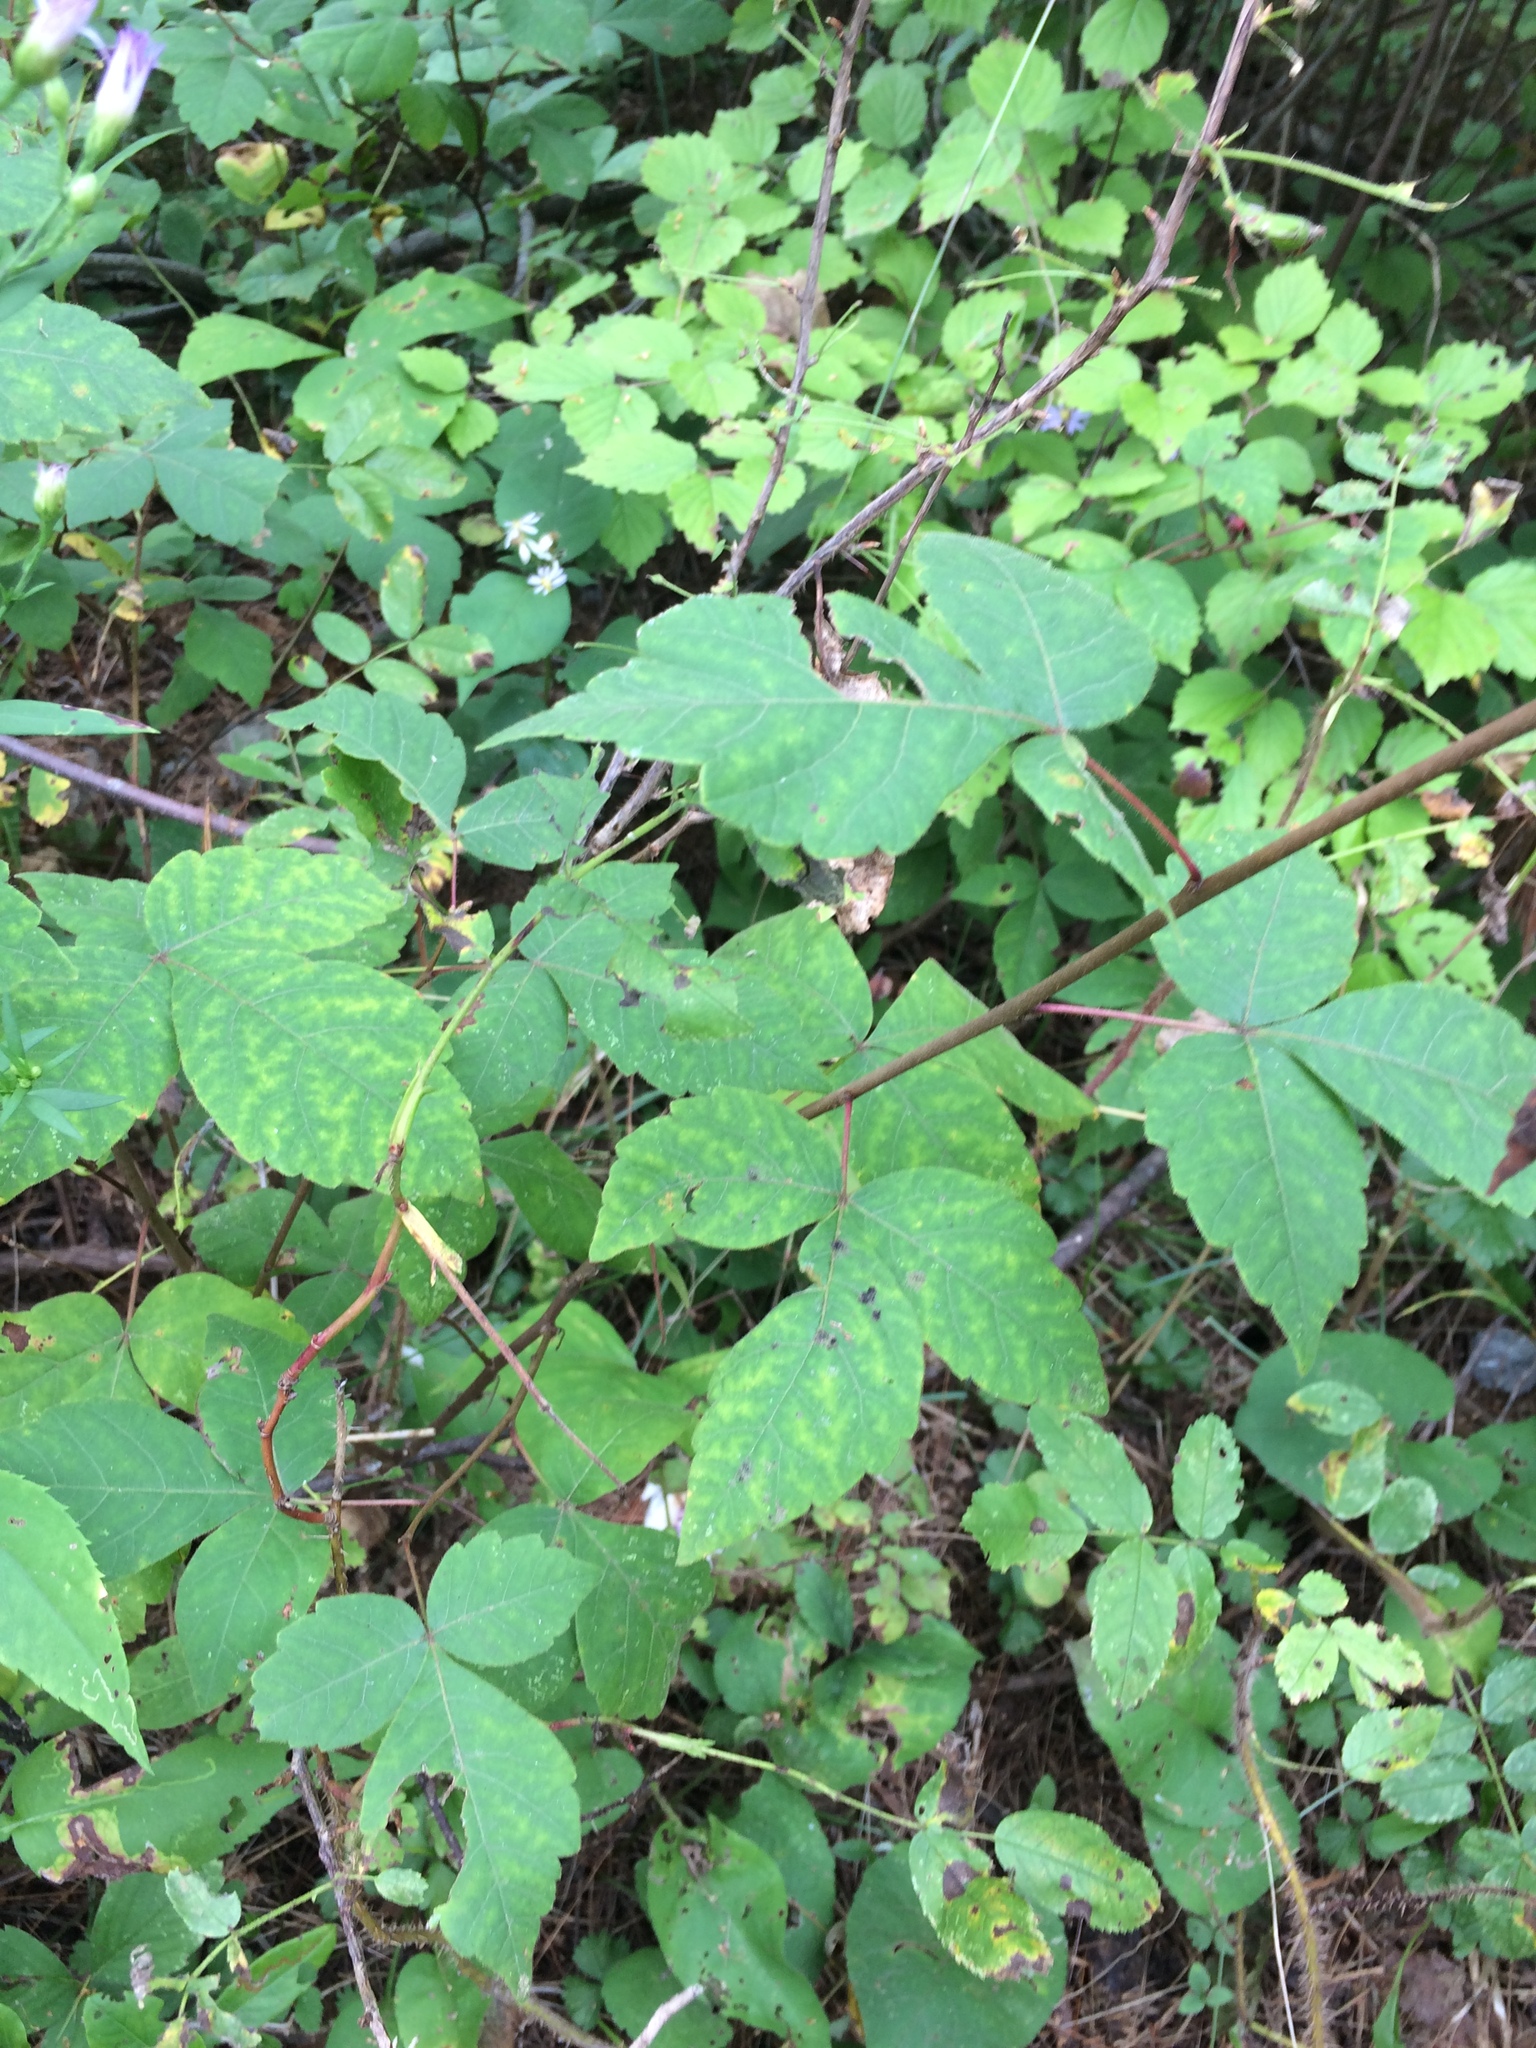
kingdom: Plantae
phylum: Tracheophyta
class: Magnoliopsida
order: Sapindales
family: Anacardiaceae
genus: Rhus
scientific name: Rhus aromatica
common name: Aromatic sumac
